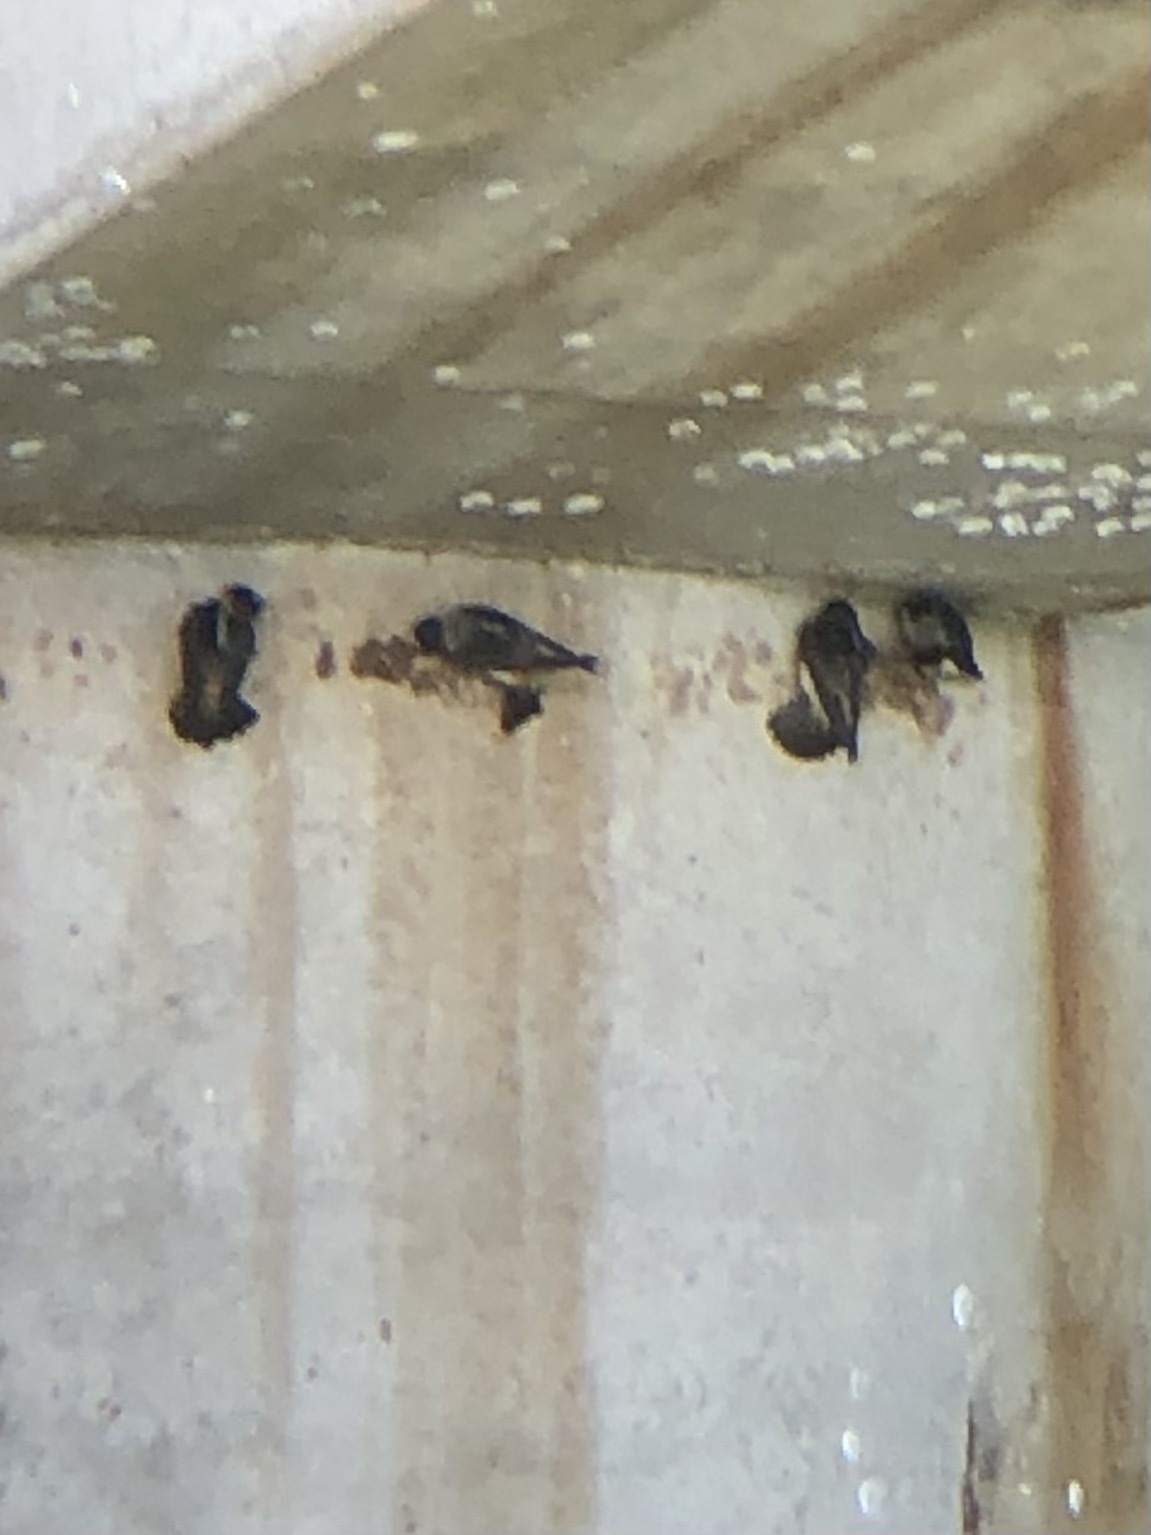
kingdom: Animalia
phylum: Chordata
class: Aves
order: Passeriformes
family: Hirundinidae
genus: Petrochelidon
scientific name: Petrochelidon pyrrhonota
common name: American cliff swallow
